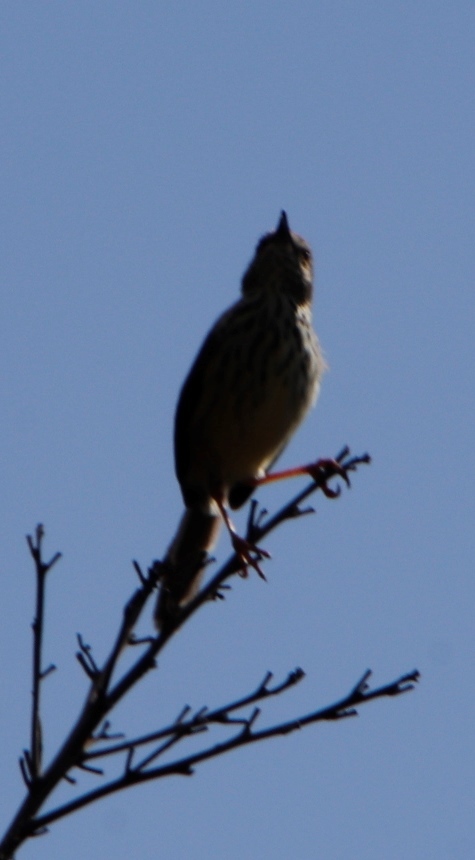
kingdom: Animalia
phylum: Chordata
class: Aves
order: Passeriformes
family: Cisticolidae
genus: Prinia
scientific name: Prinia maculosa
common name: Karoo prinia
